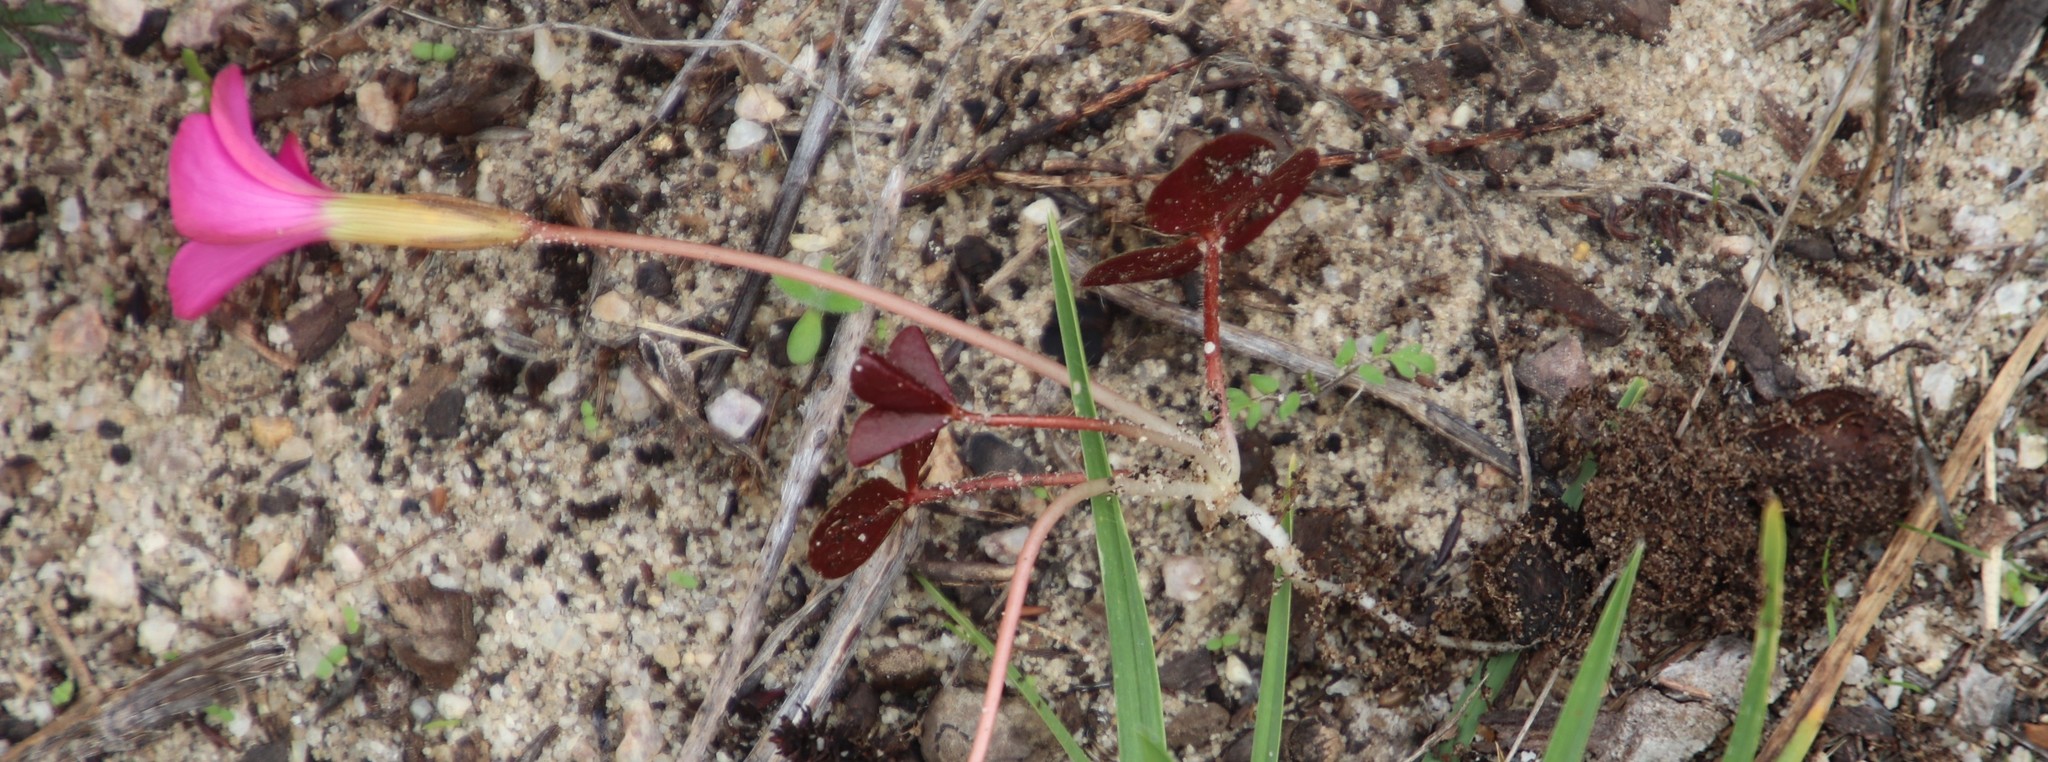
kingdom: Plantae
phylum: Tracheophyta
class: Magnoliopsida
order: Oxalidales
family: Oxalidaceae
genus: Oxalis
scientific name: Oxalis eckloniana
